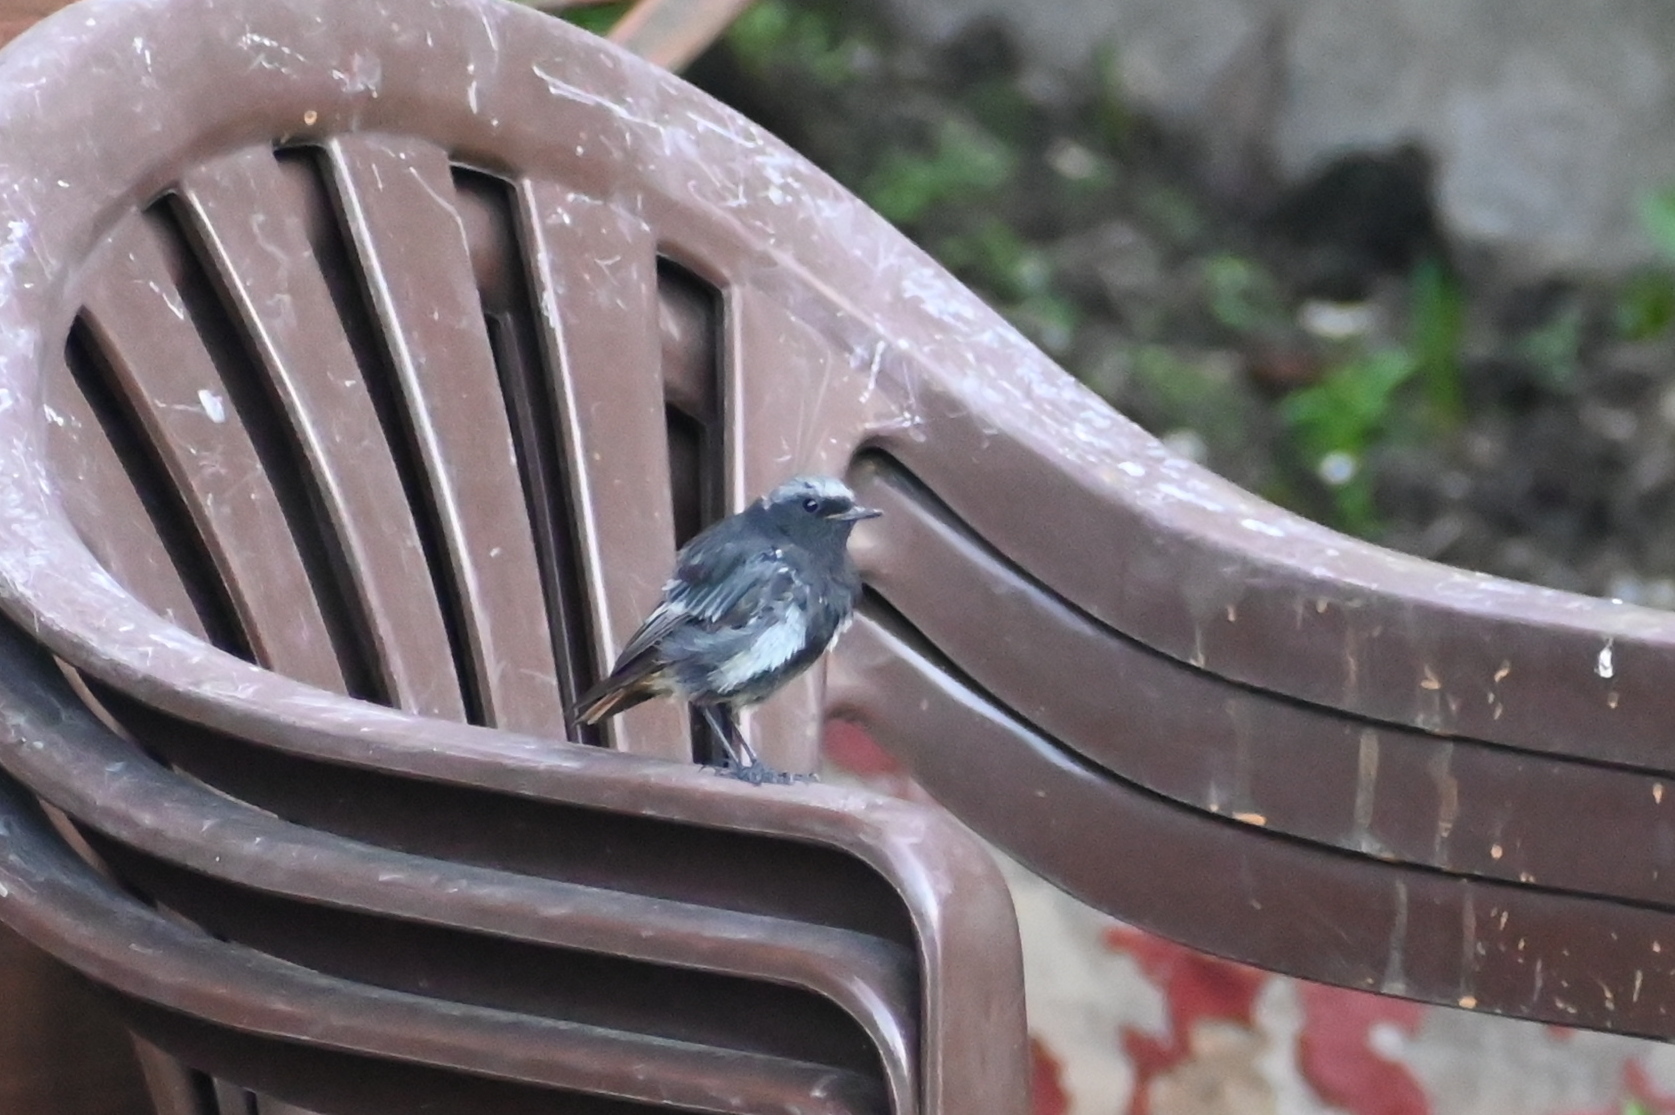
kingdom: Animalia
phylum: Chordata
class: Aves
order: Passeriformes
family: Muscicapidae
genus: Phoenicurus
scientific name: Phoenicurus ochruros
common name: Black redstart
